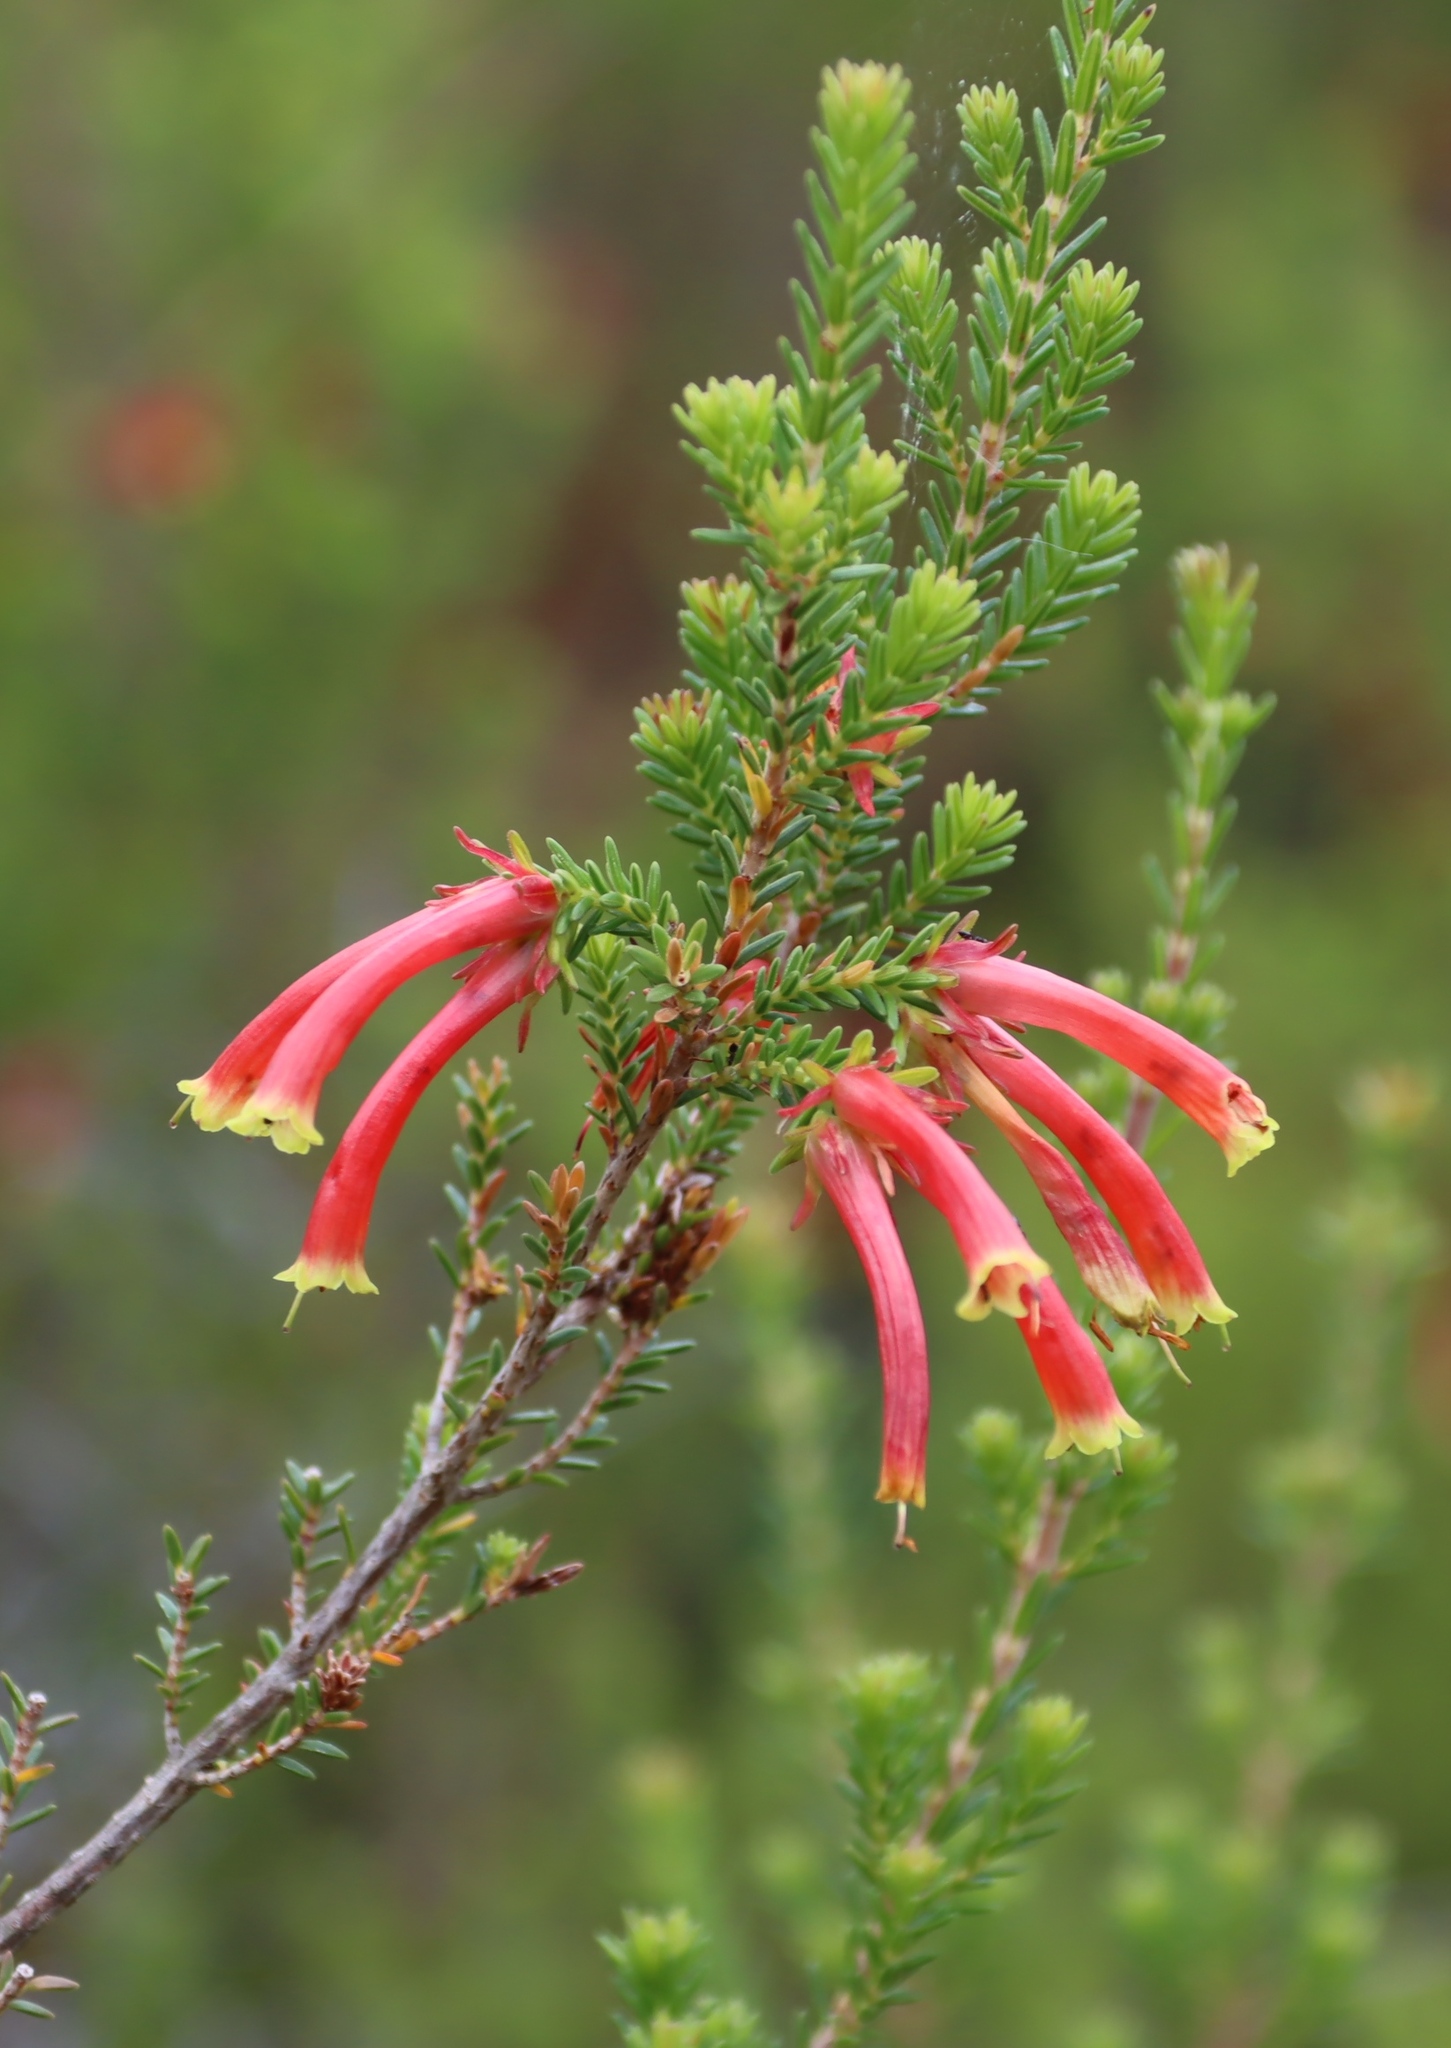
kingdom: Plantae
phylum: Tracheophyta
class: Magnoliopsida
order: Ericales
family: Ericaceae
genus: Erica
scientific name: Erica discolor
